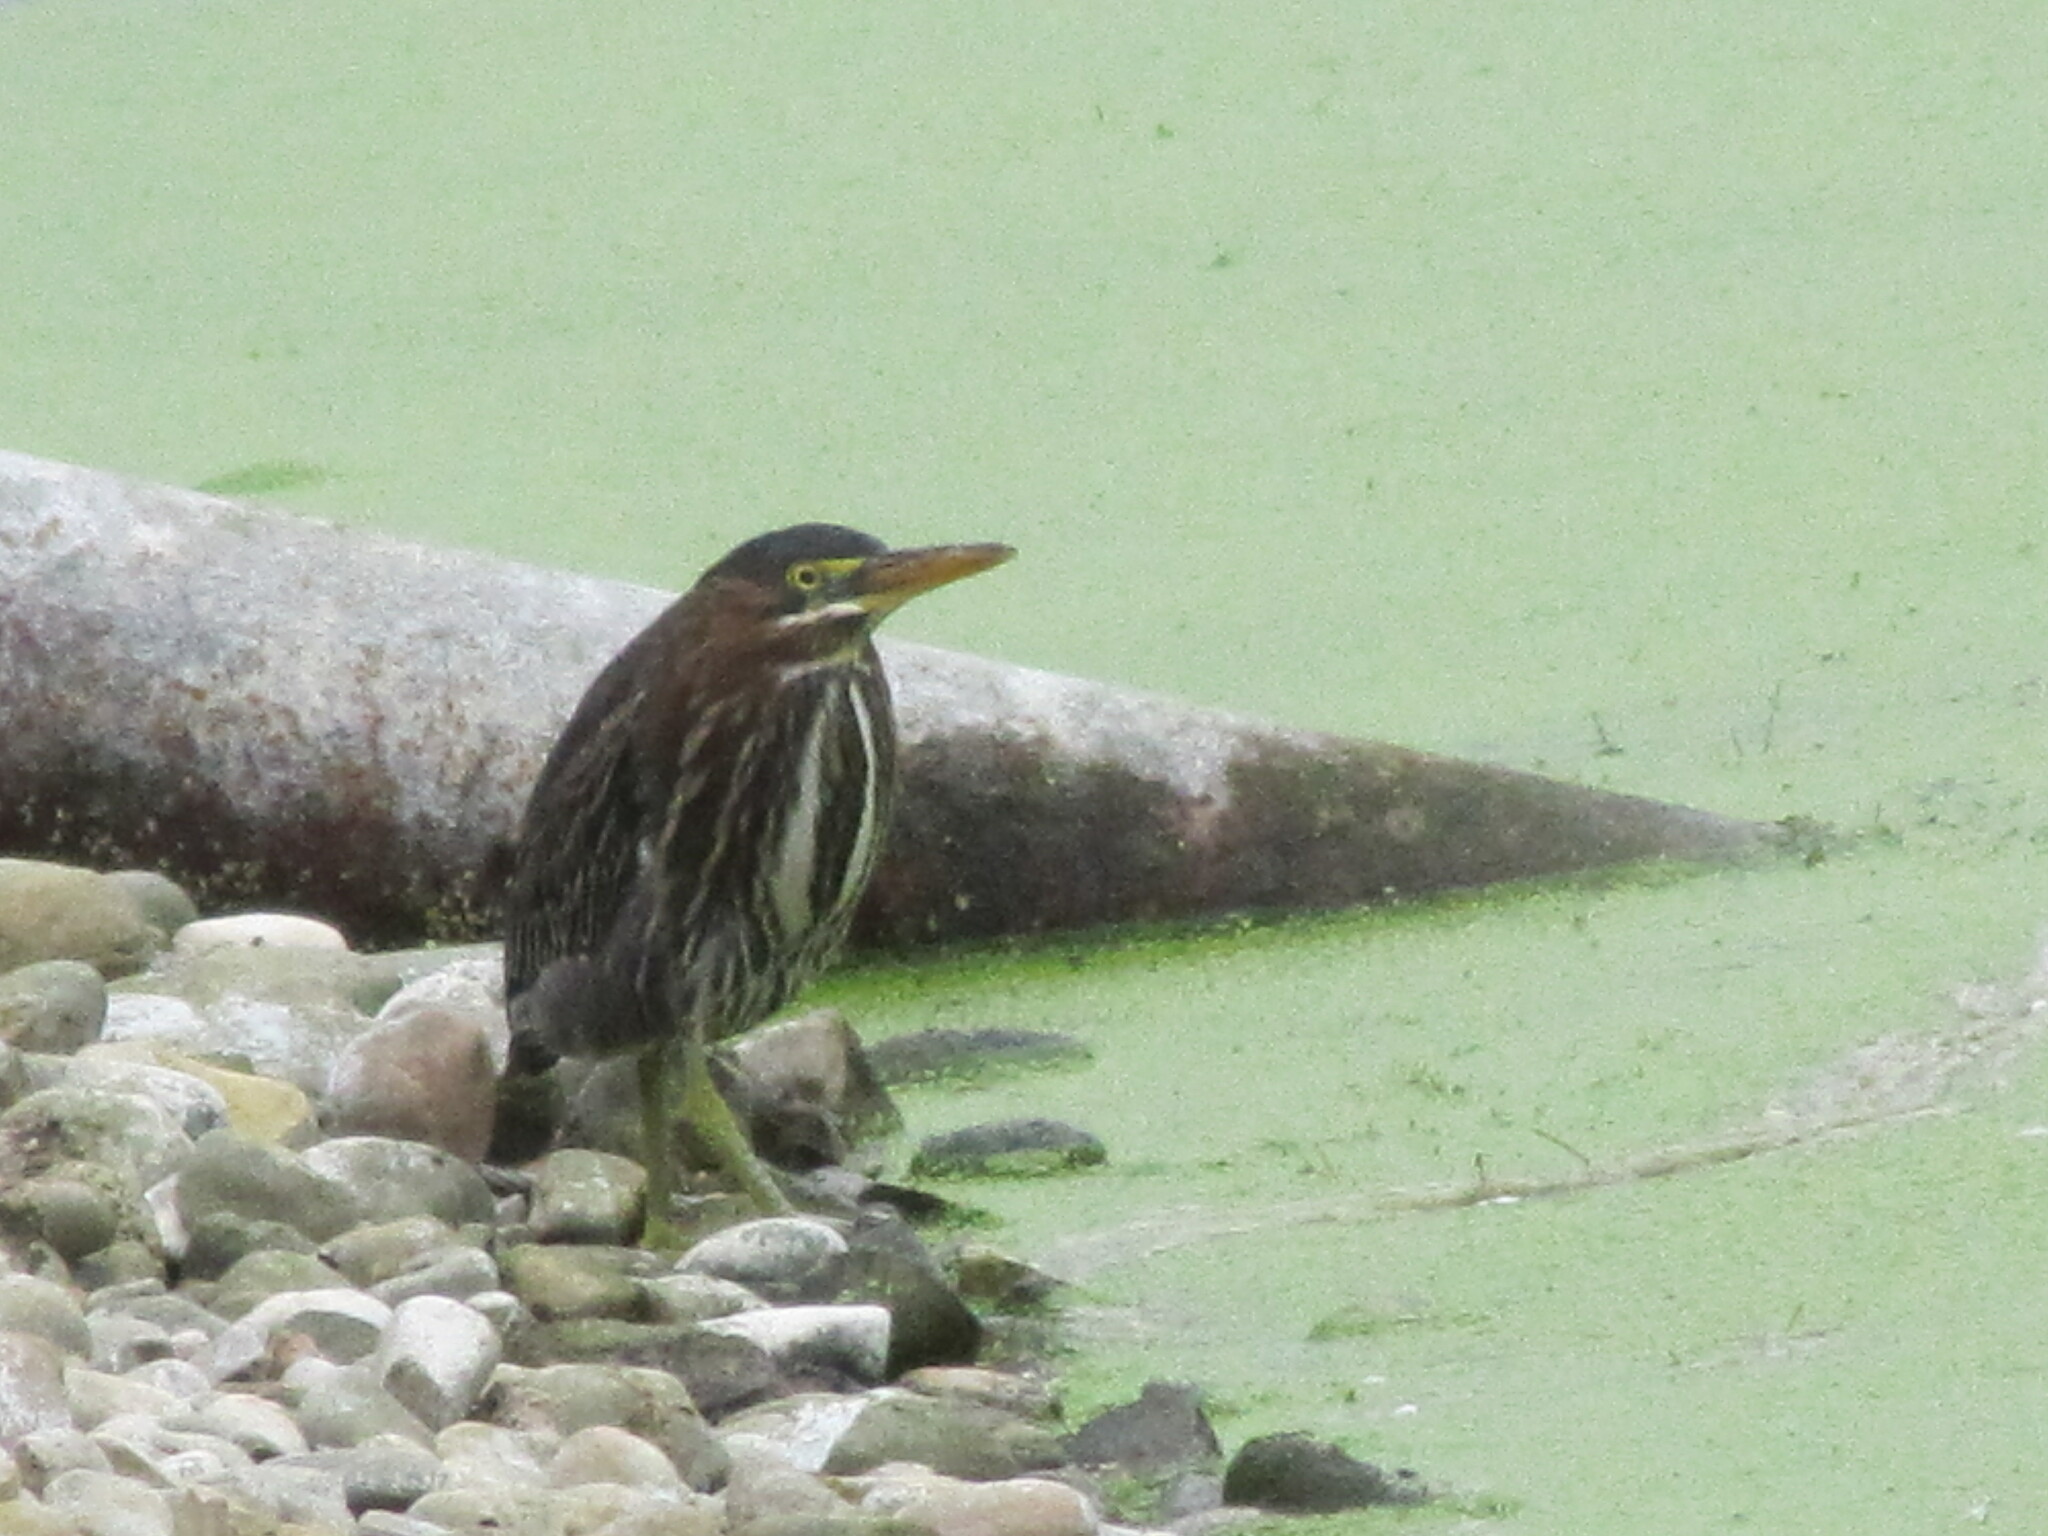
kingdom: Animalia
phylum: Chordata
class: Aves
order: Pelecaniformes
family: Ardeidae
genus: Butorides
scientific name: Butorides virescens
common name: Green heron
